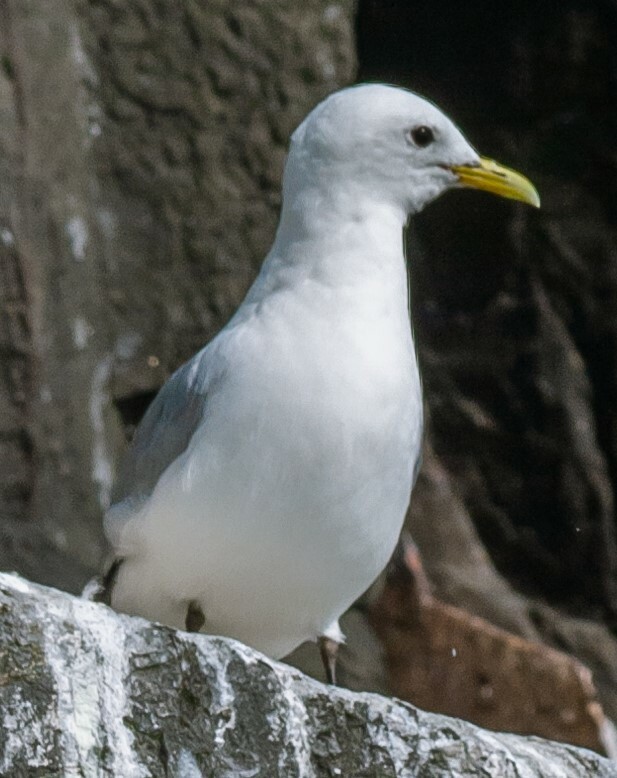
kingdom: Animalia
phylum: Chordata
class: Aves
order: Charadriiformes
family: Laridae
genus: Rissa
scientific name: Rissa tridactyla
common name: Black-legged kittiwake
